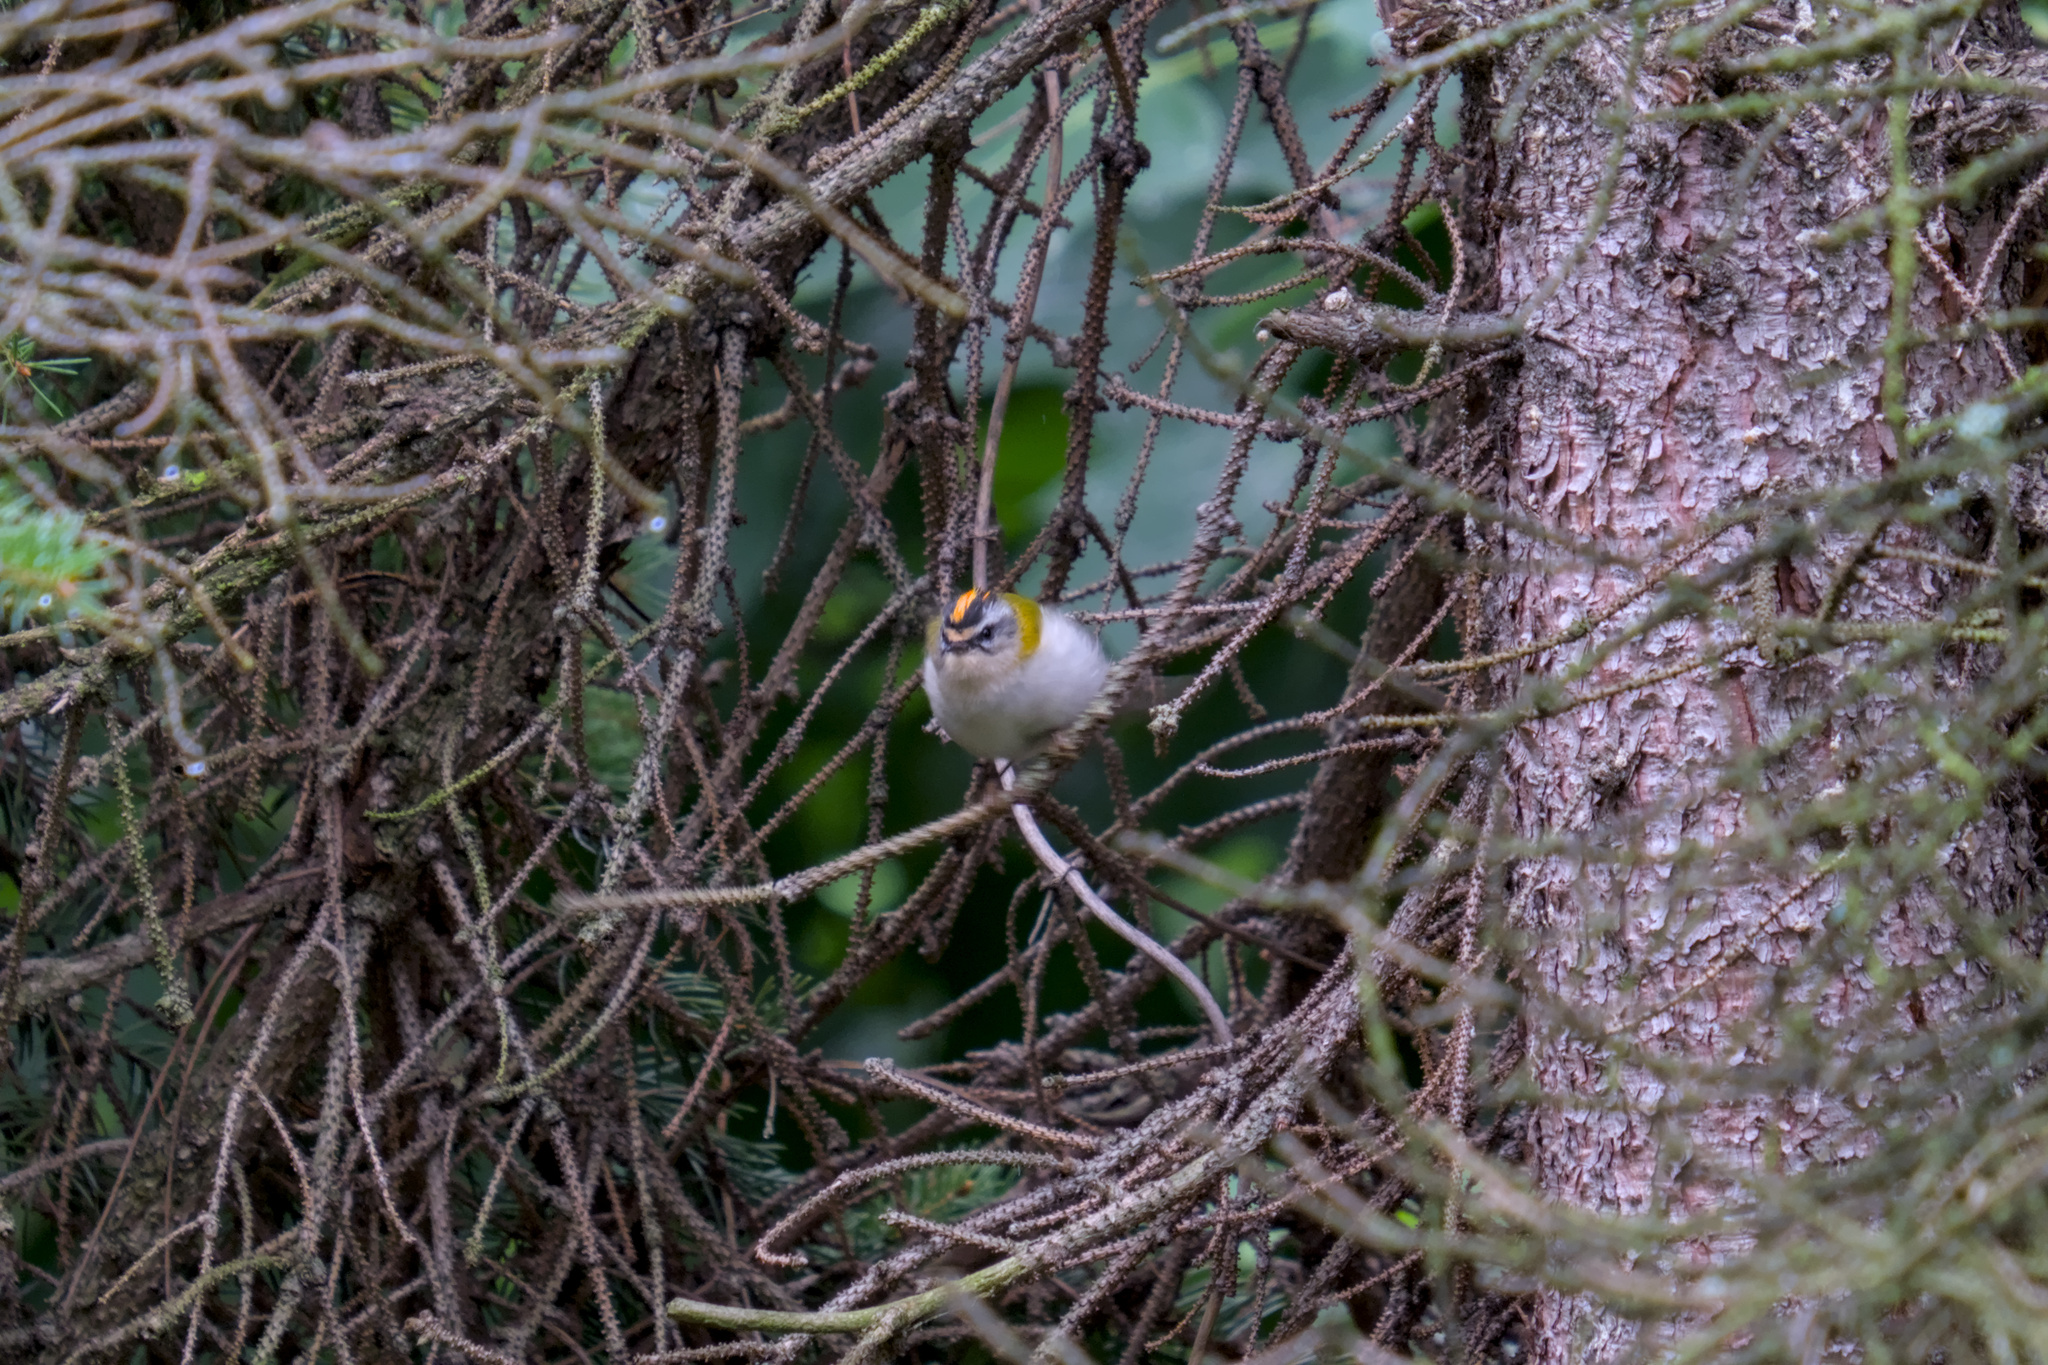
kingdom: Animalia
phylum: Chordata
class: Aves
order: Passeriformes
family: Regulidae
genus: Regulus
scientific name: Regulus ignicapilla
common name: Firecrest
